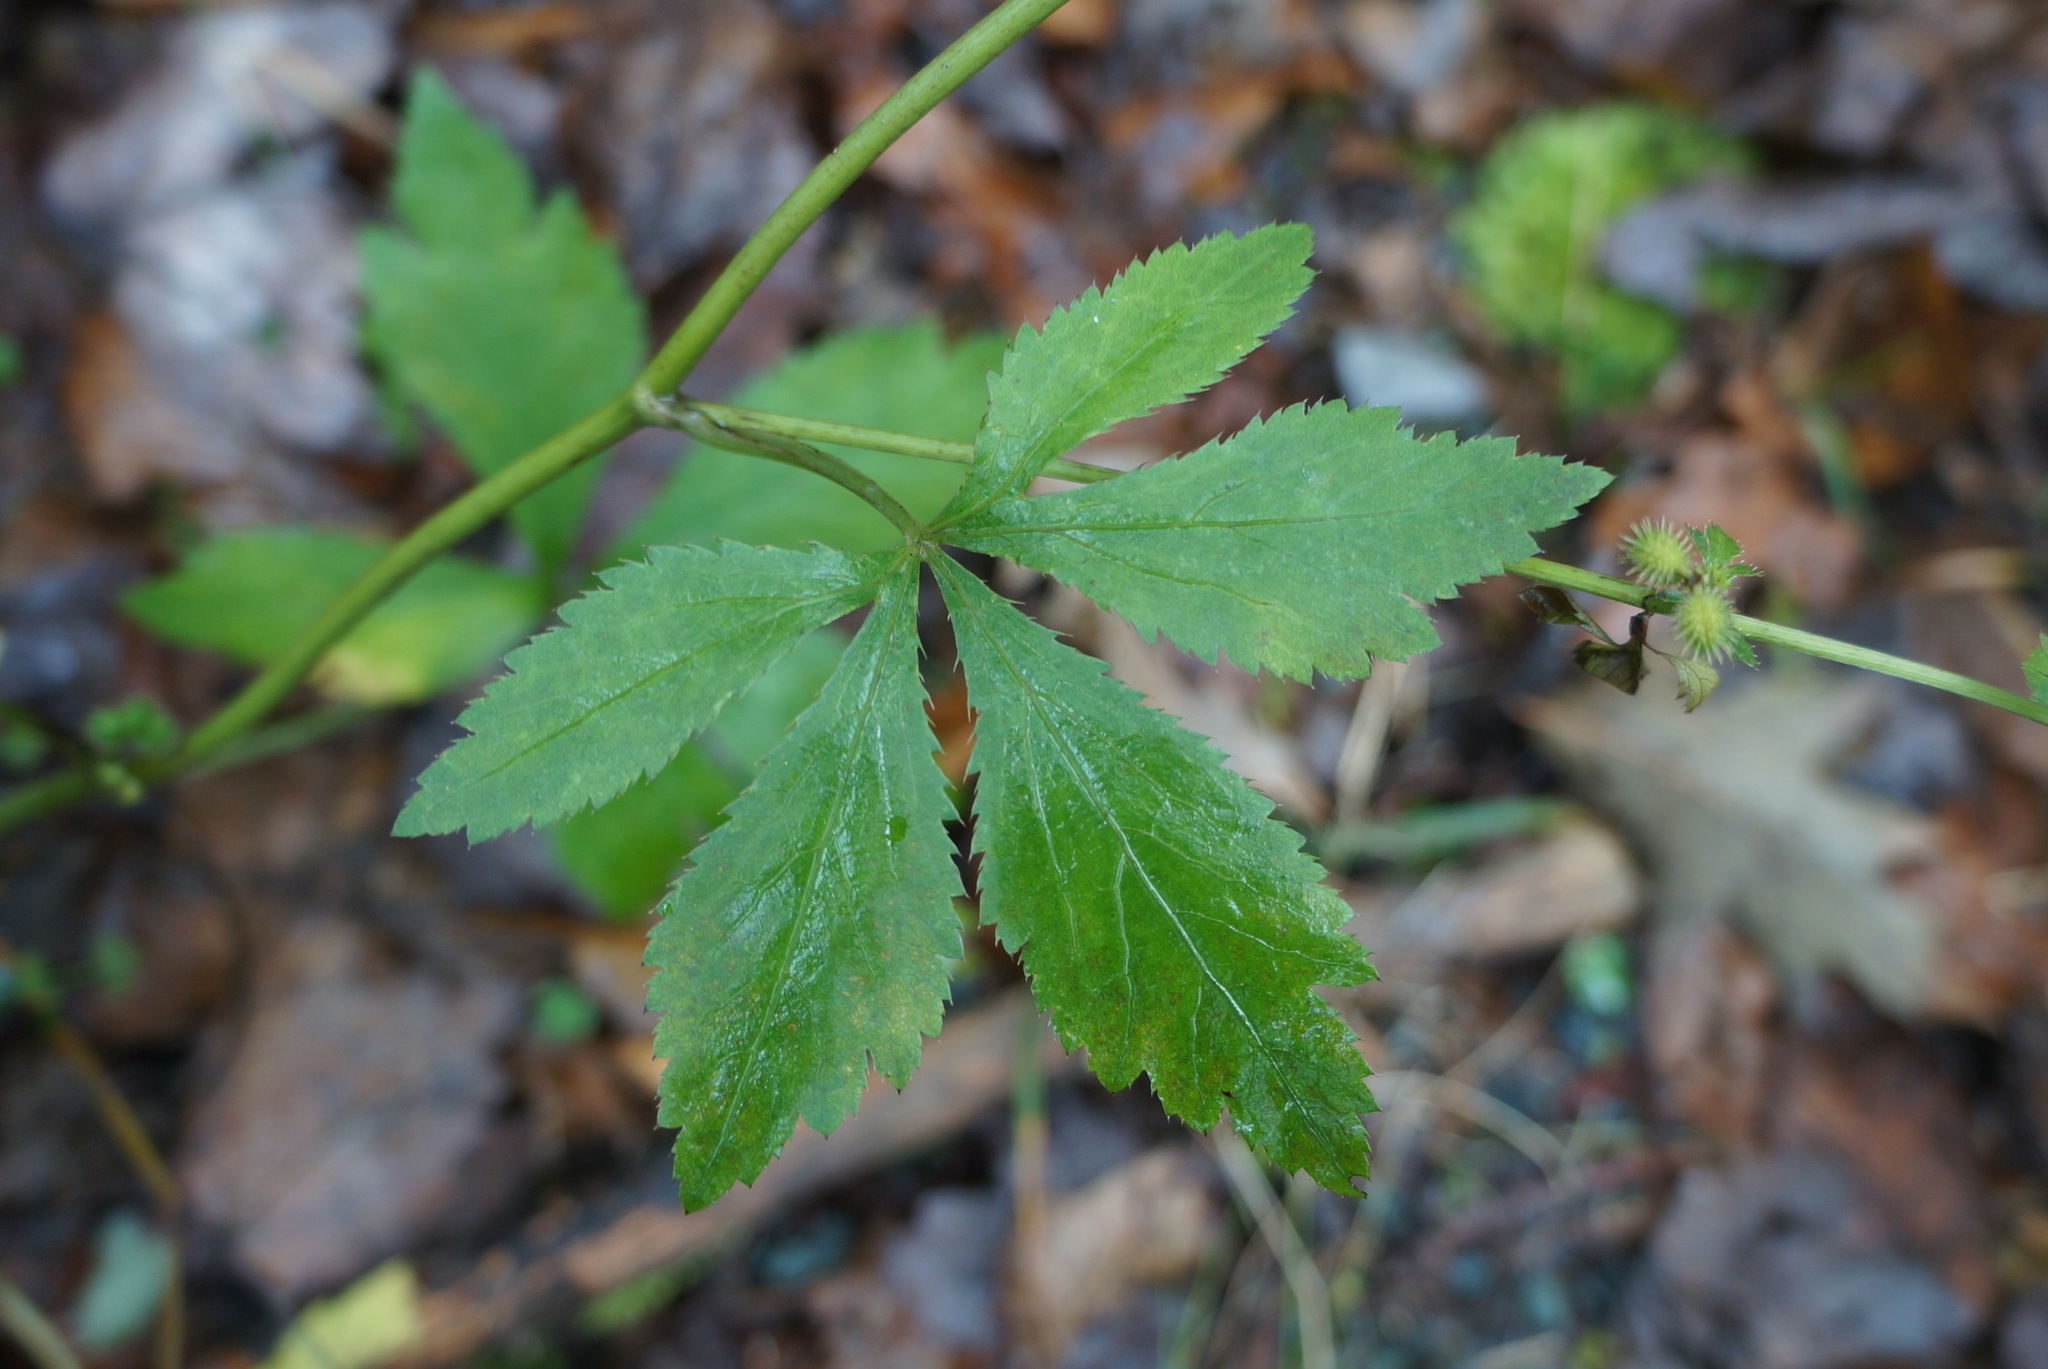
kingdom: Plantae
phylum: Tracheophyta
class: Magnoliopsida
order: Apiales
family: Apiaceae
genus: Sanicula
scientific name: Sanicula canadensis
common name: Canada sanicle
